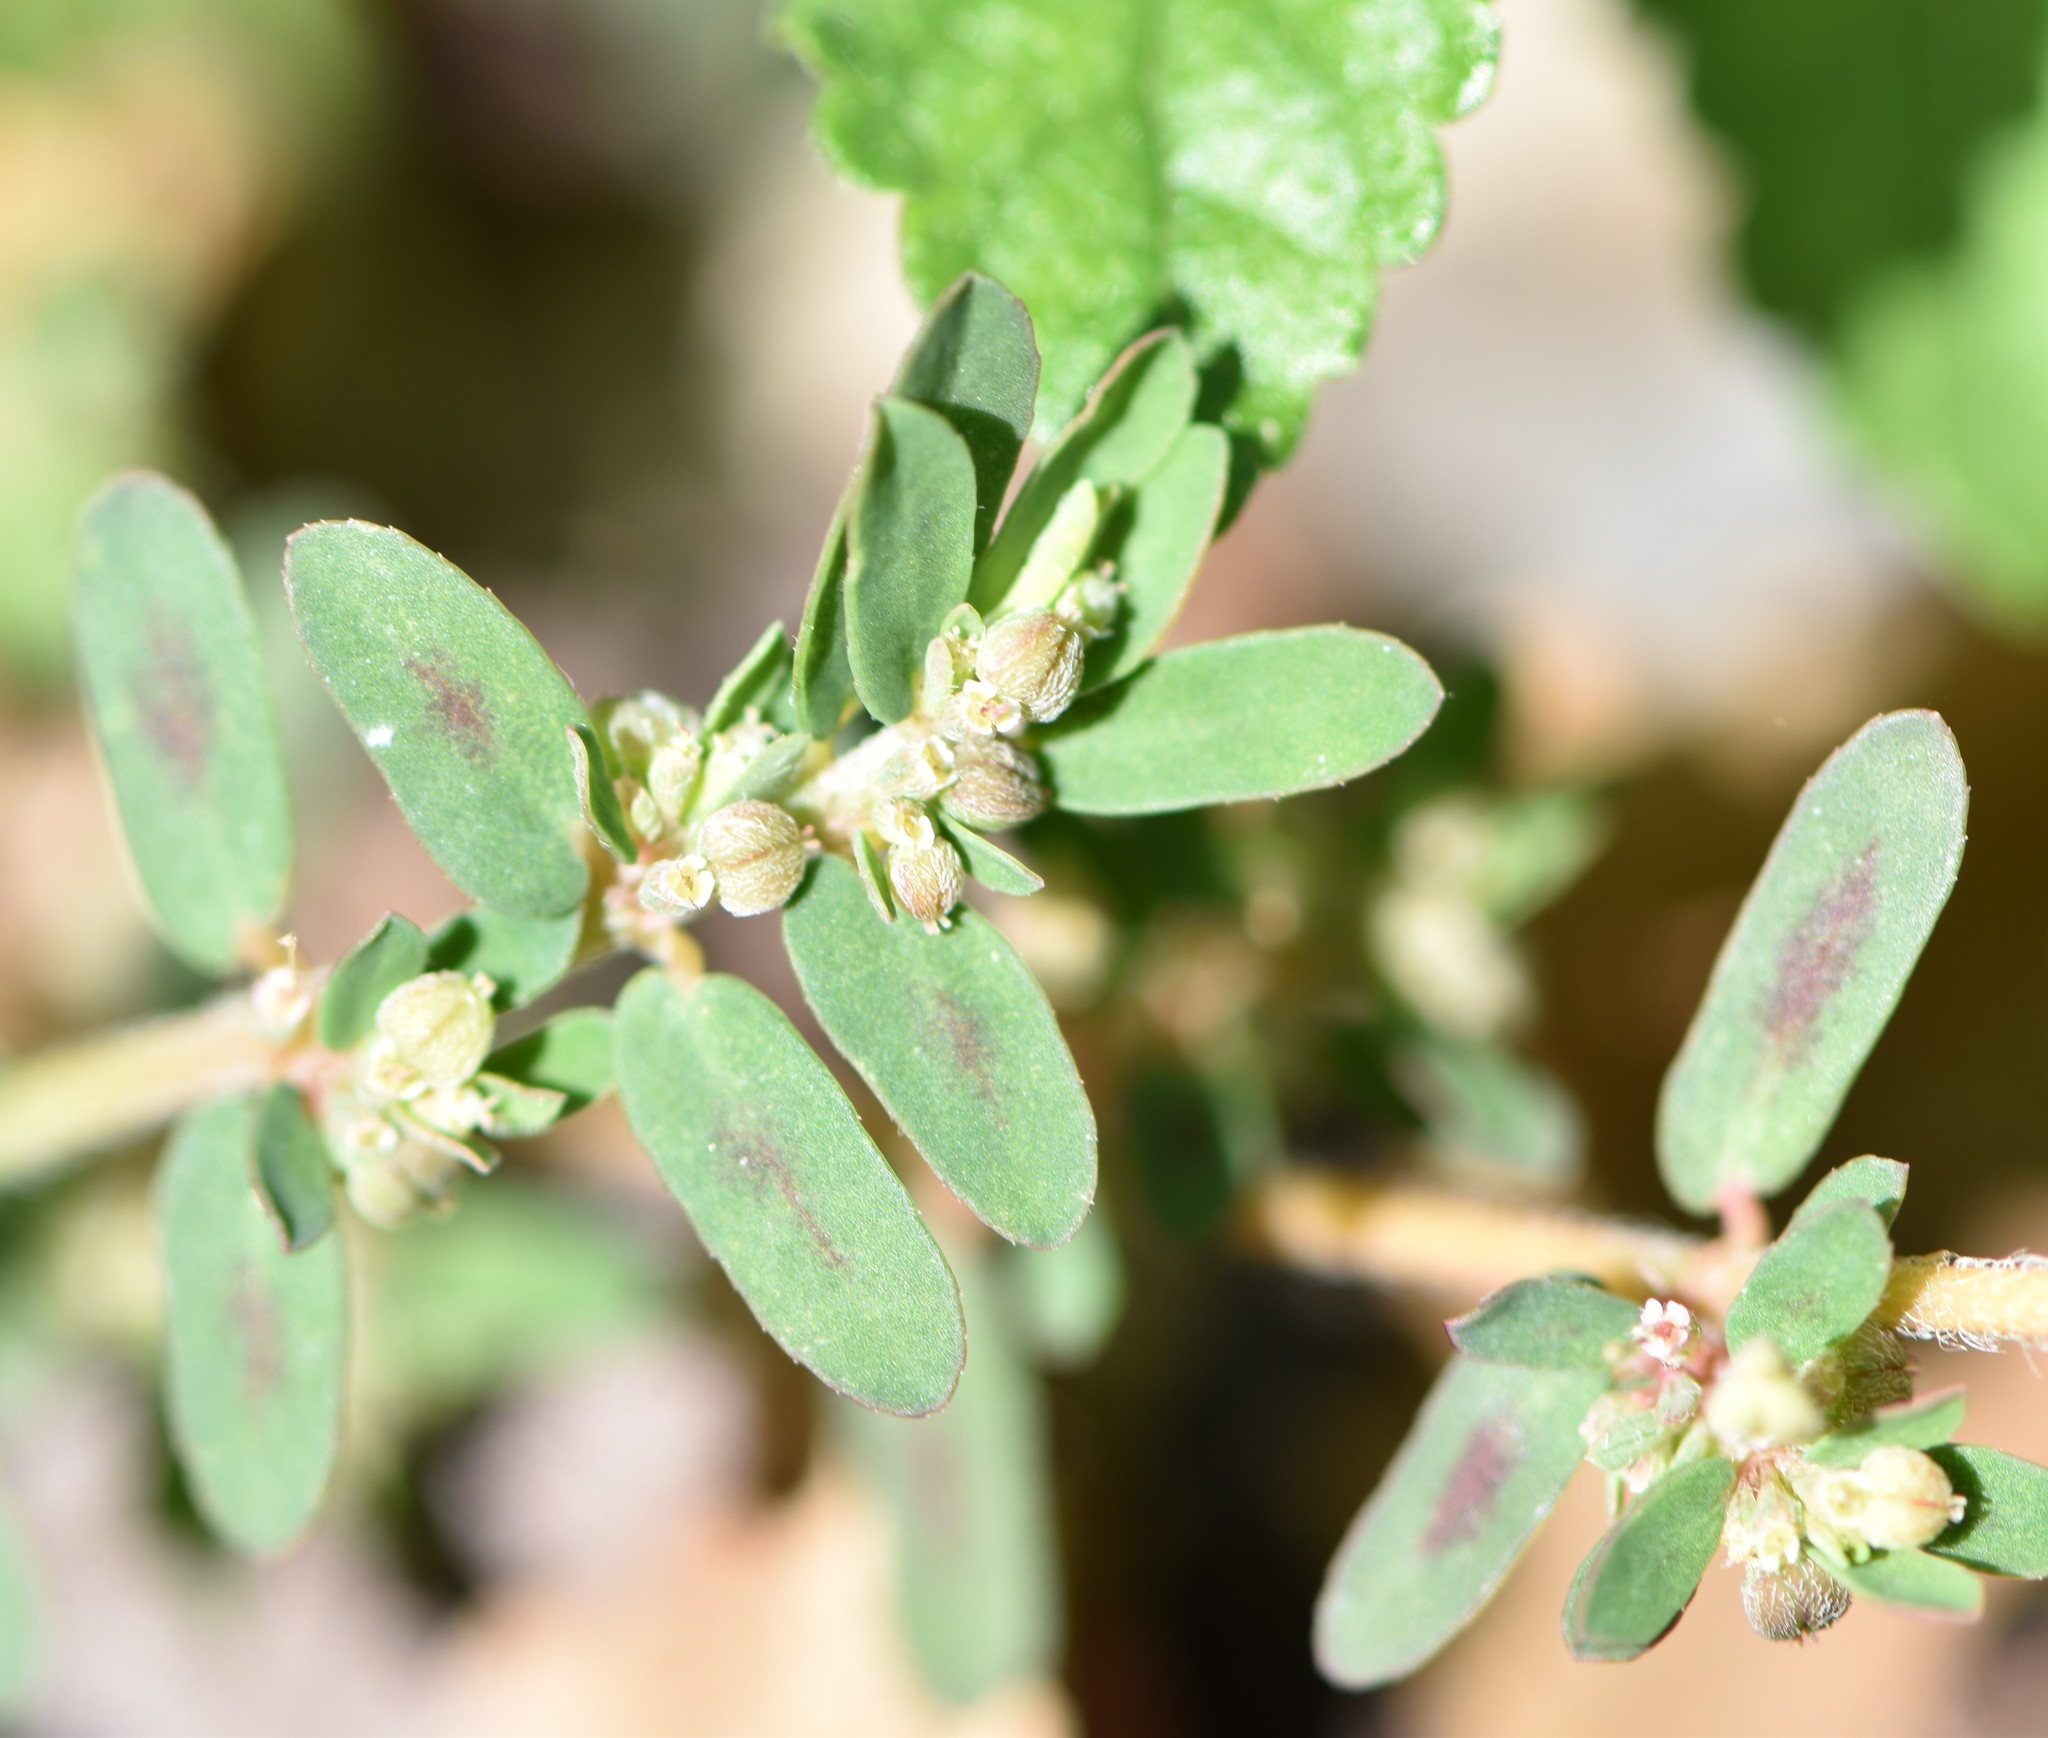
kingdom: Plantae
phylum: Tracheophyta
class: Magnoliopsida
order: Malpighiales
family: Euphorbiaceae
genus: Euphorbia
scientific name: Euphorbia maculata
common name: Spotted spurge
